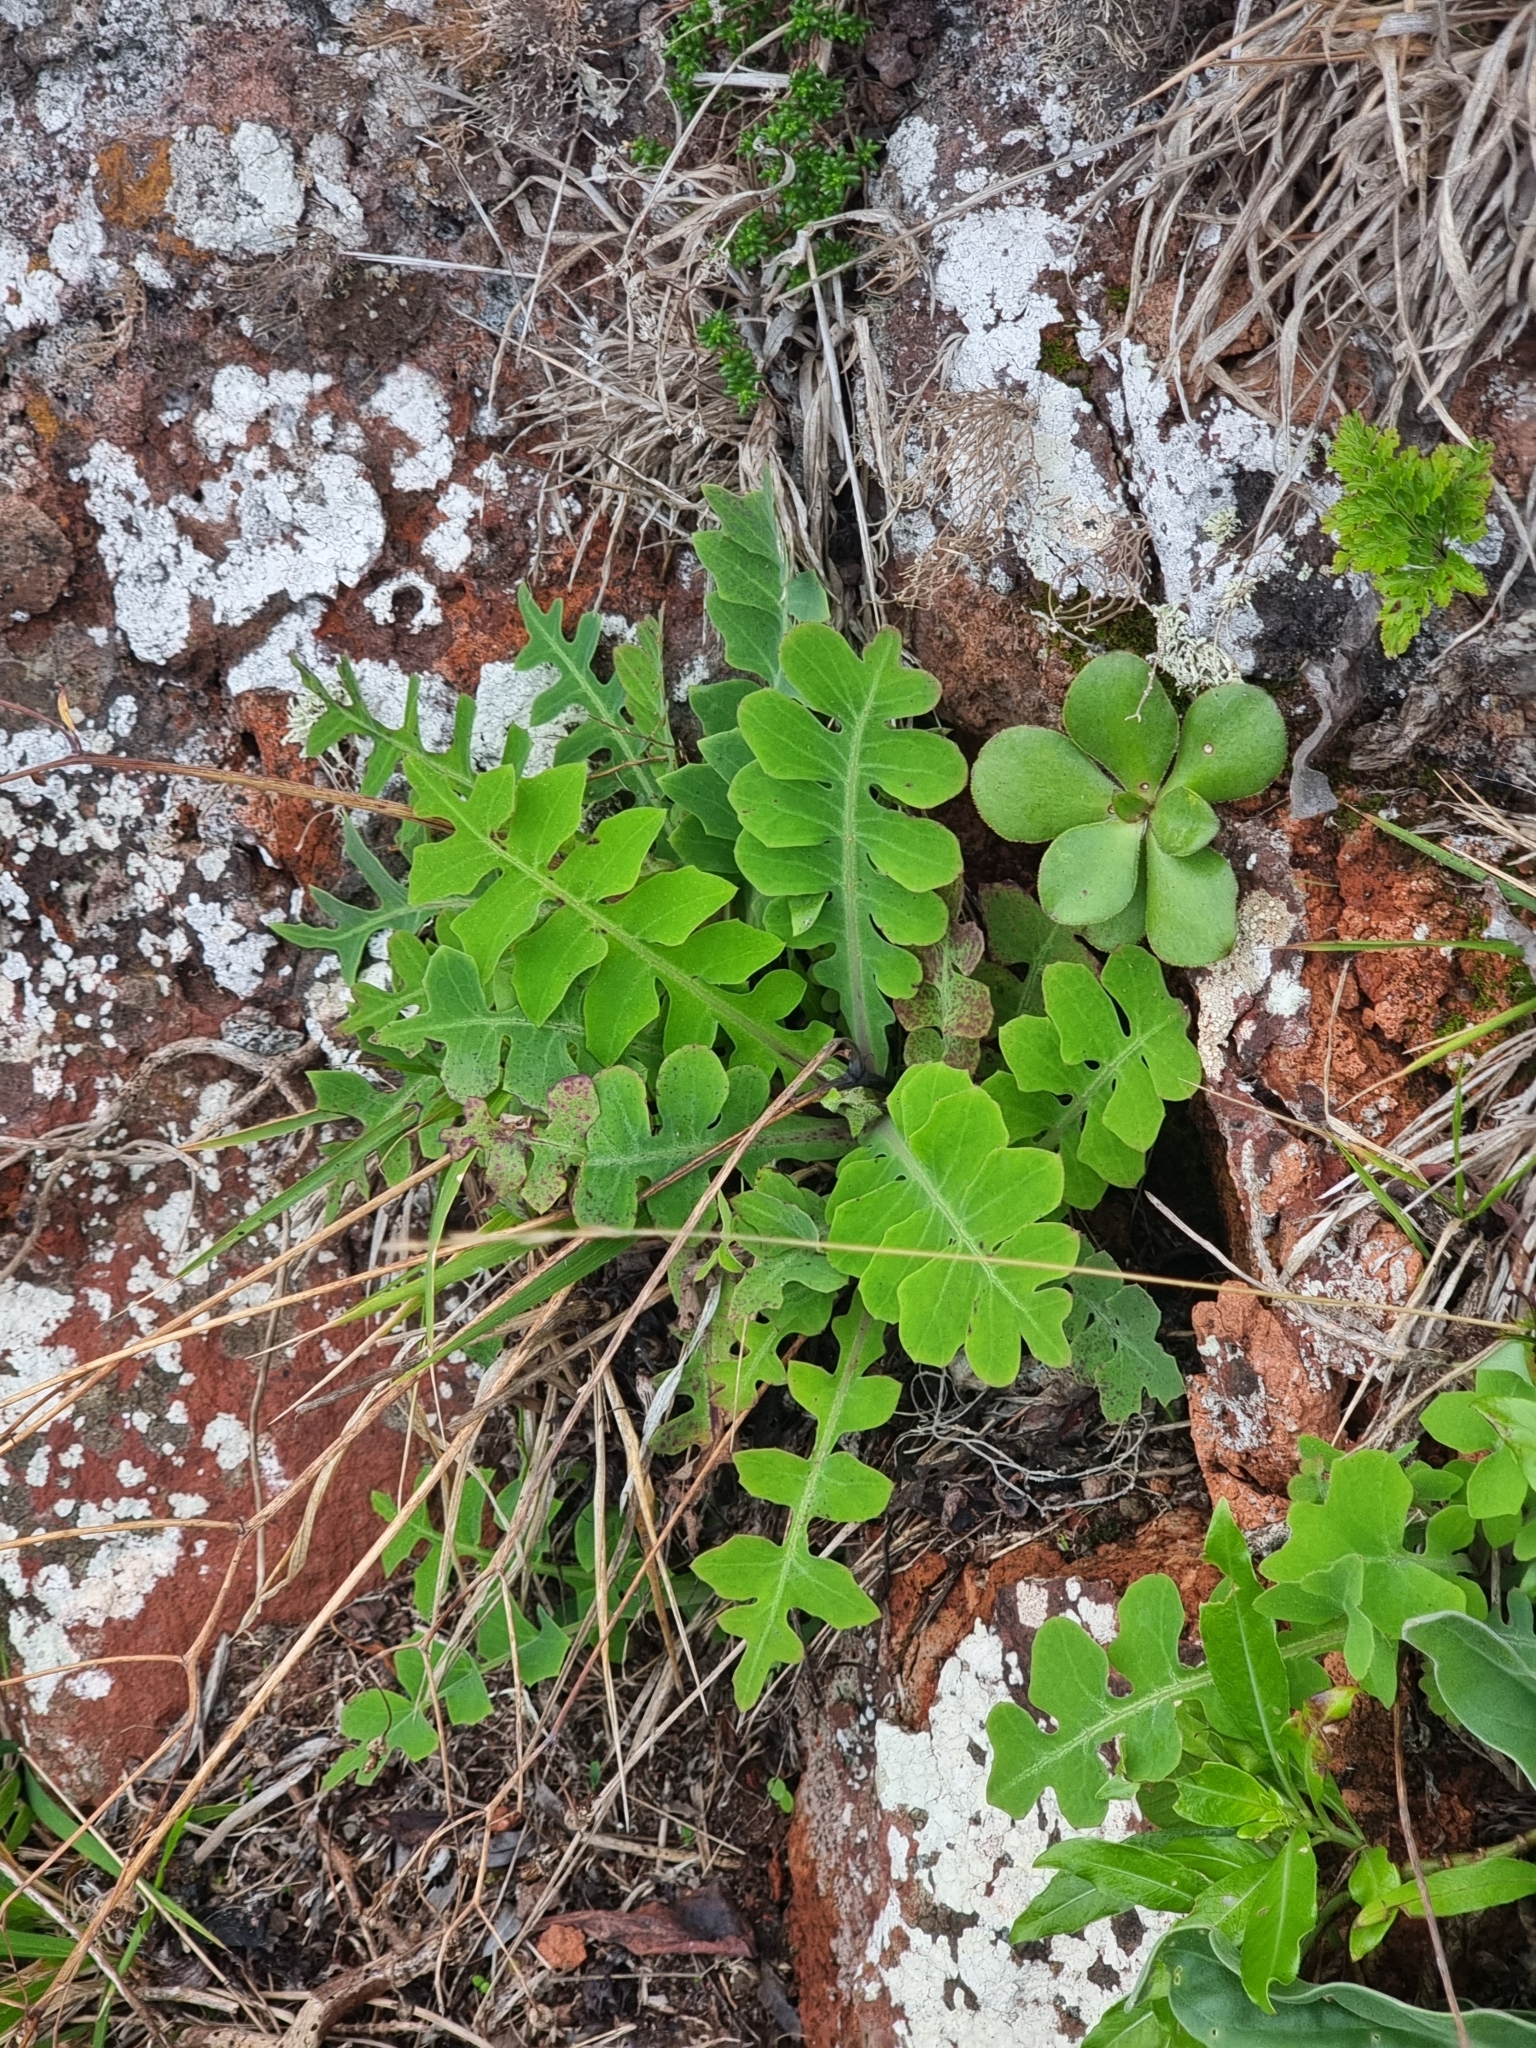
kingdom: Plantae
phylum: Tracheophyta
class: Magnoliopsida
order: Asterales
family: Asteraceae
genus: Sonchus
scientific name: Sonchus latifolius
